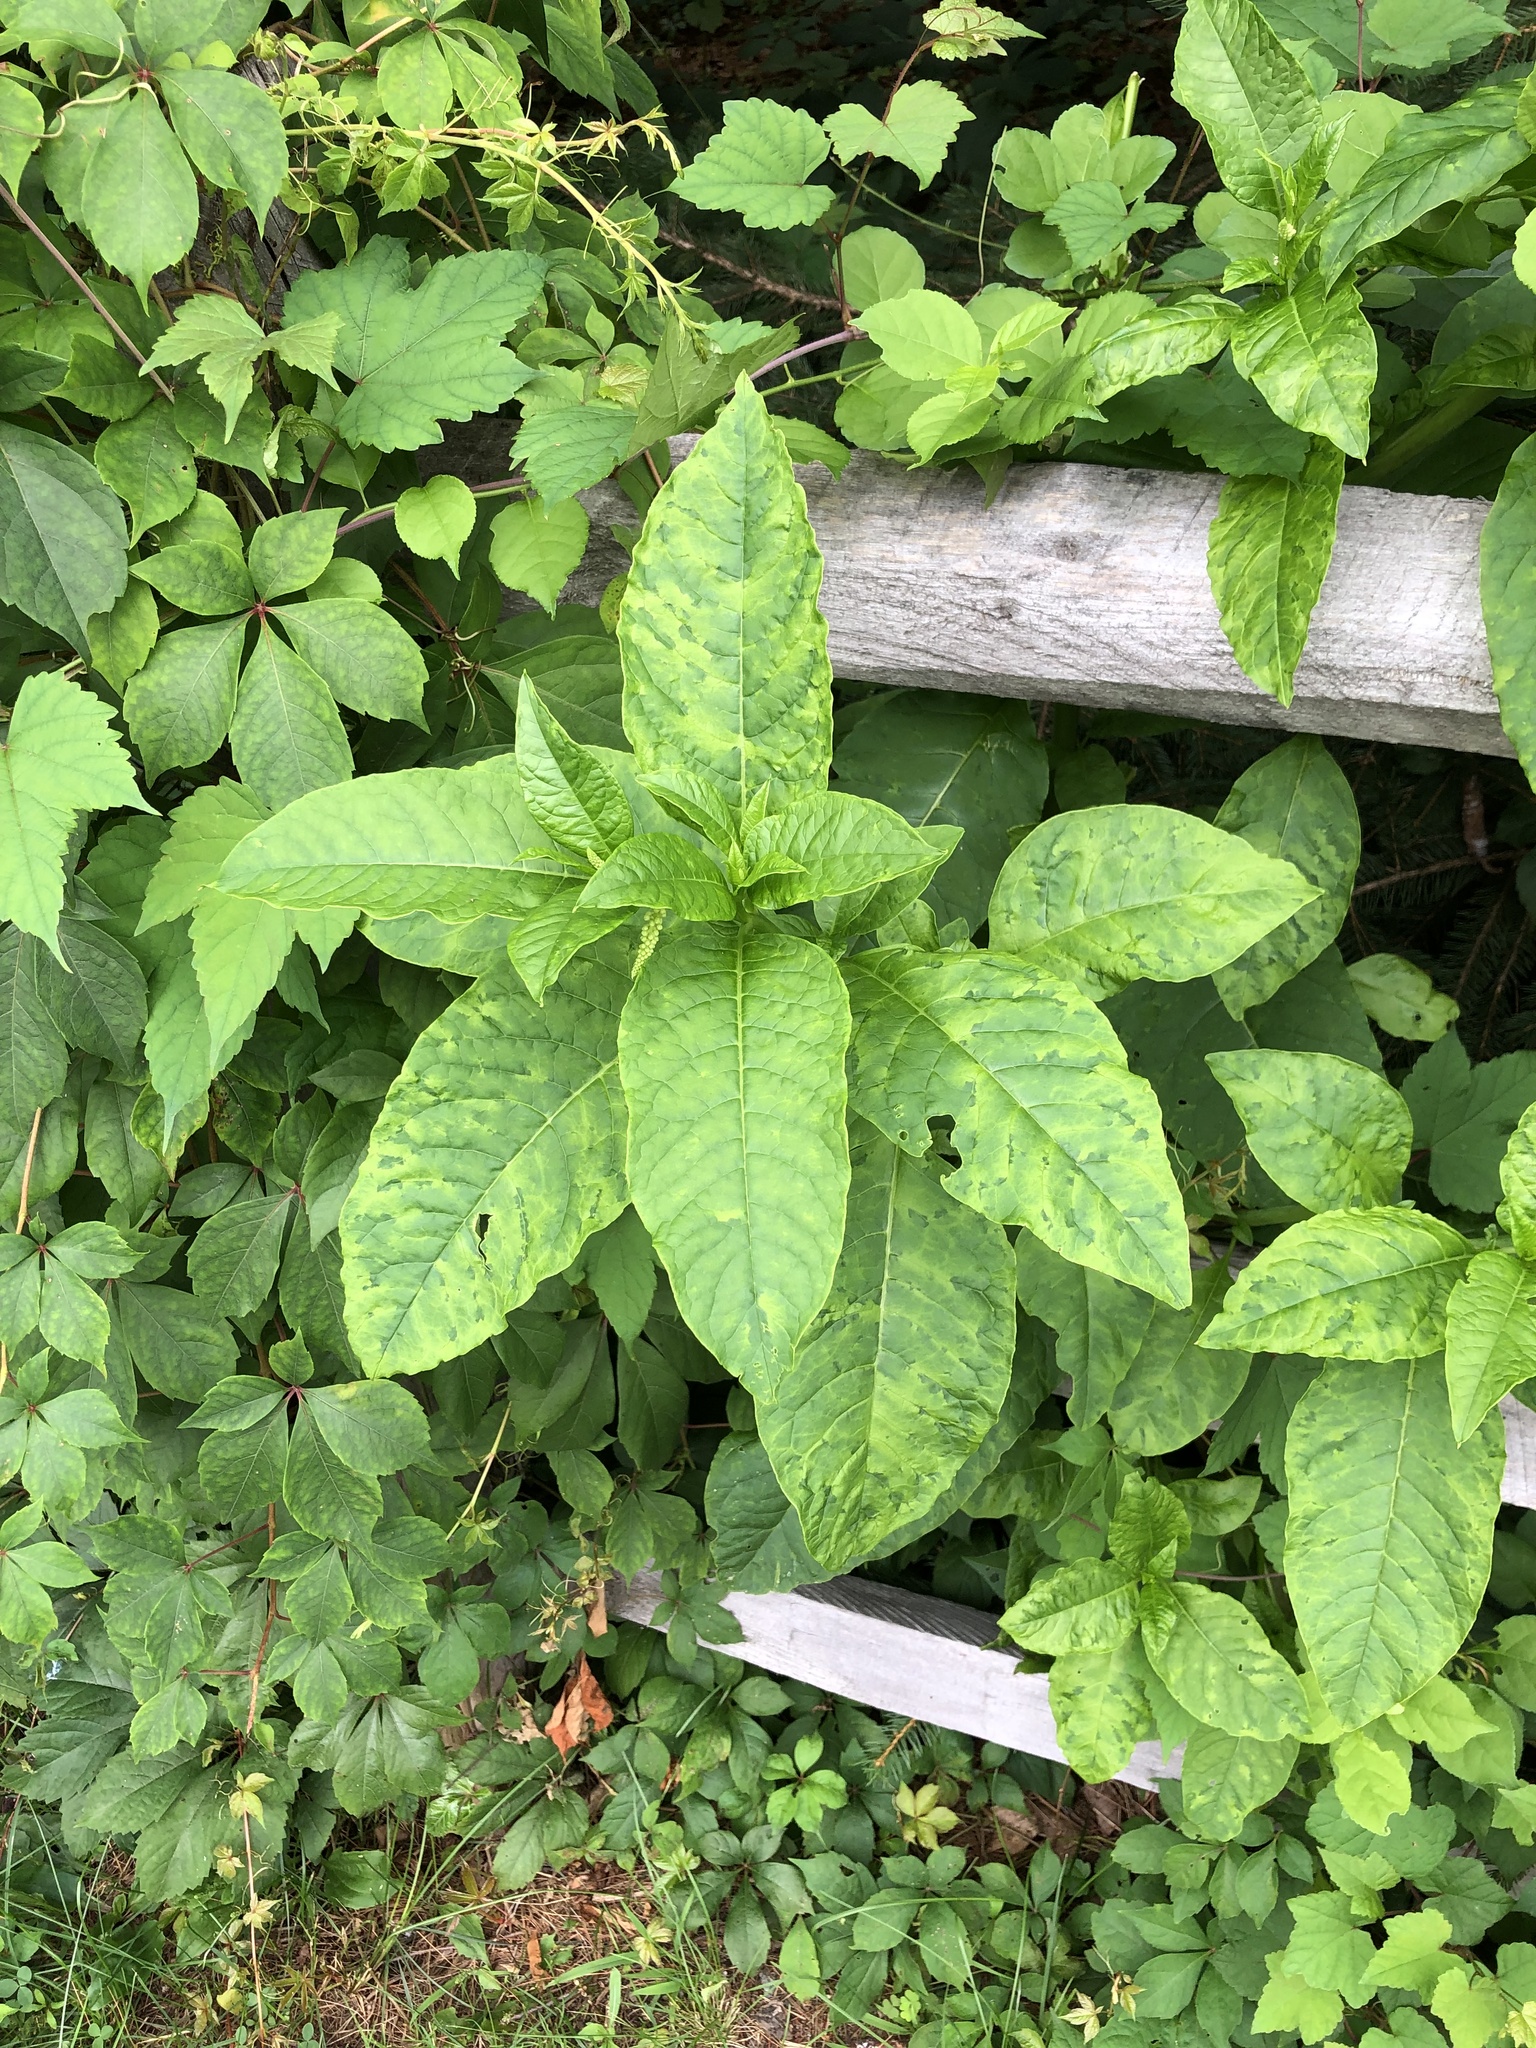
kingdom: Viruses
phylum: Pisuviricota
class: Stelpaviricetes
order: Patatavirales
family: Potyviridae
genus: Potyvirus
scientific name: Potyvirus Pokeweed mosaic virus
